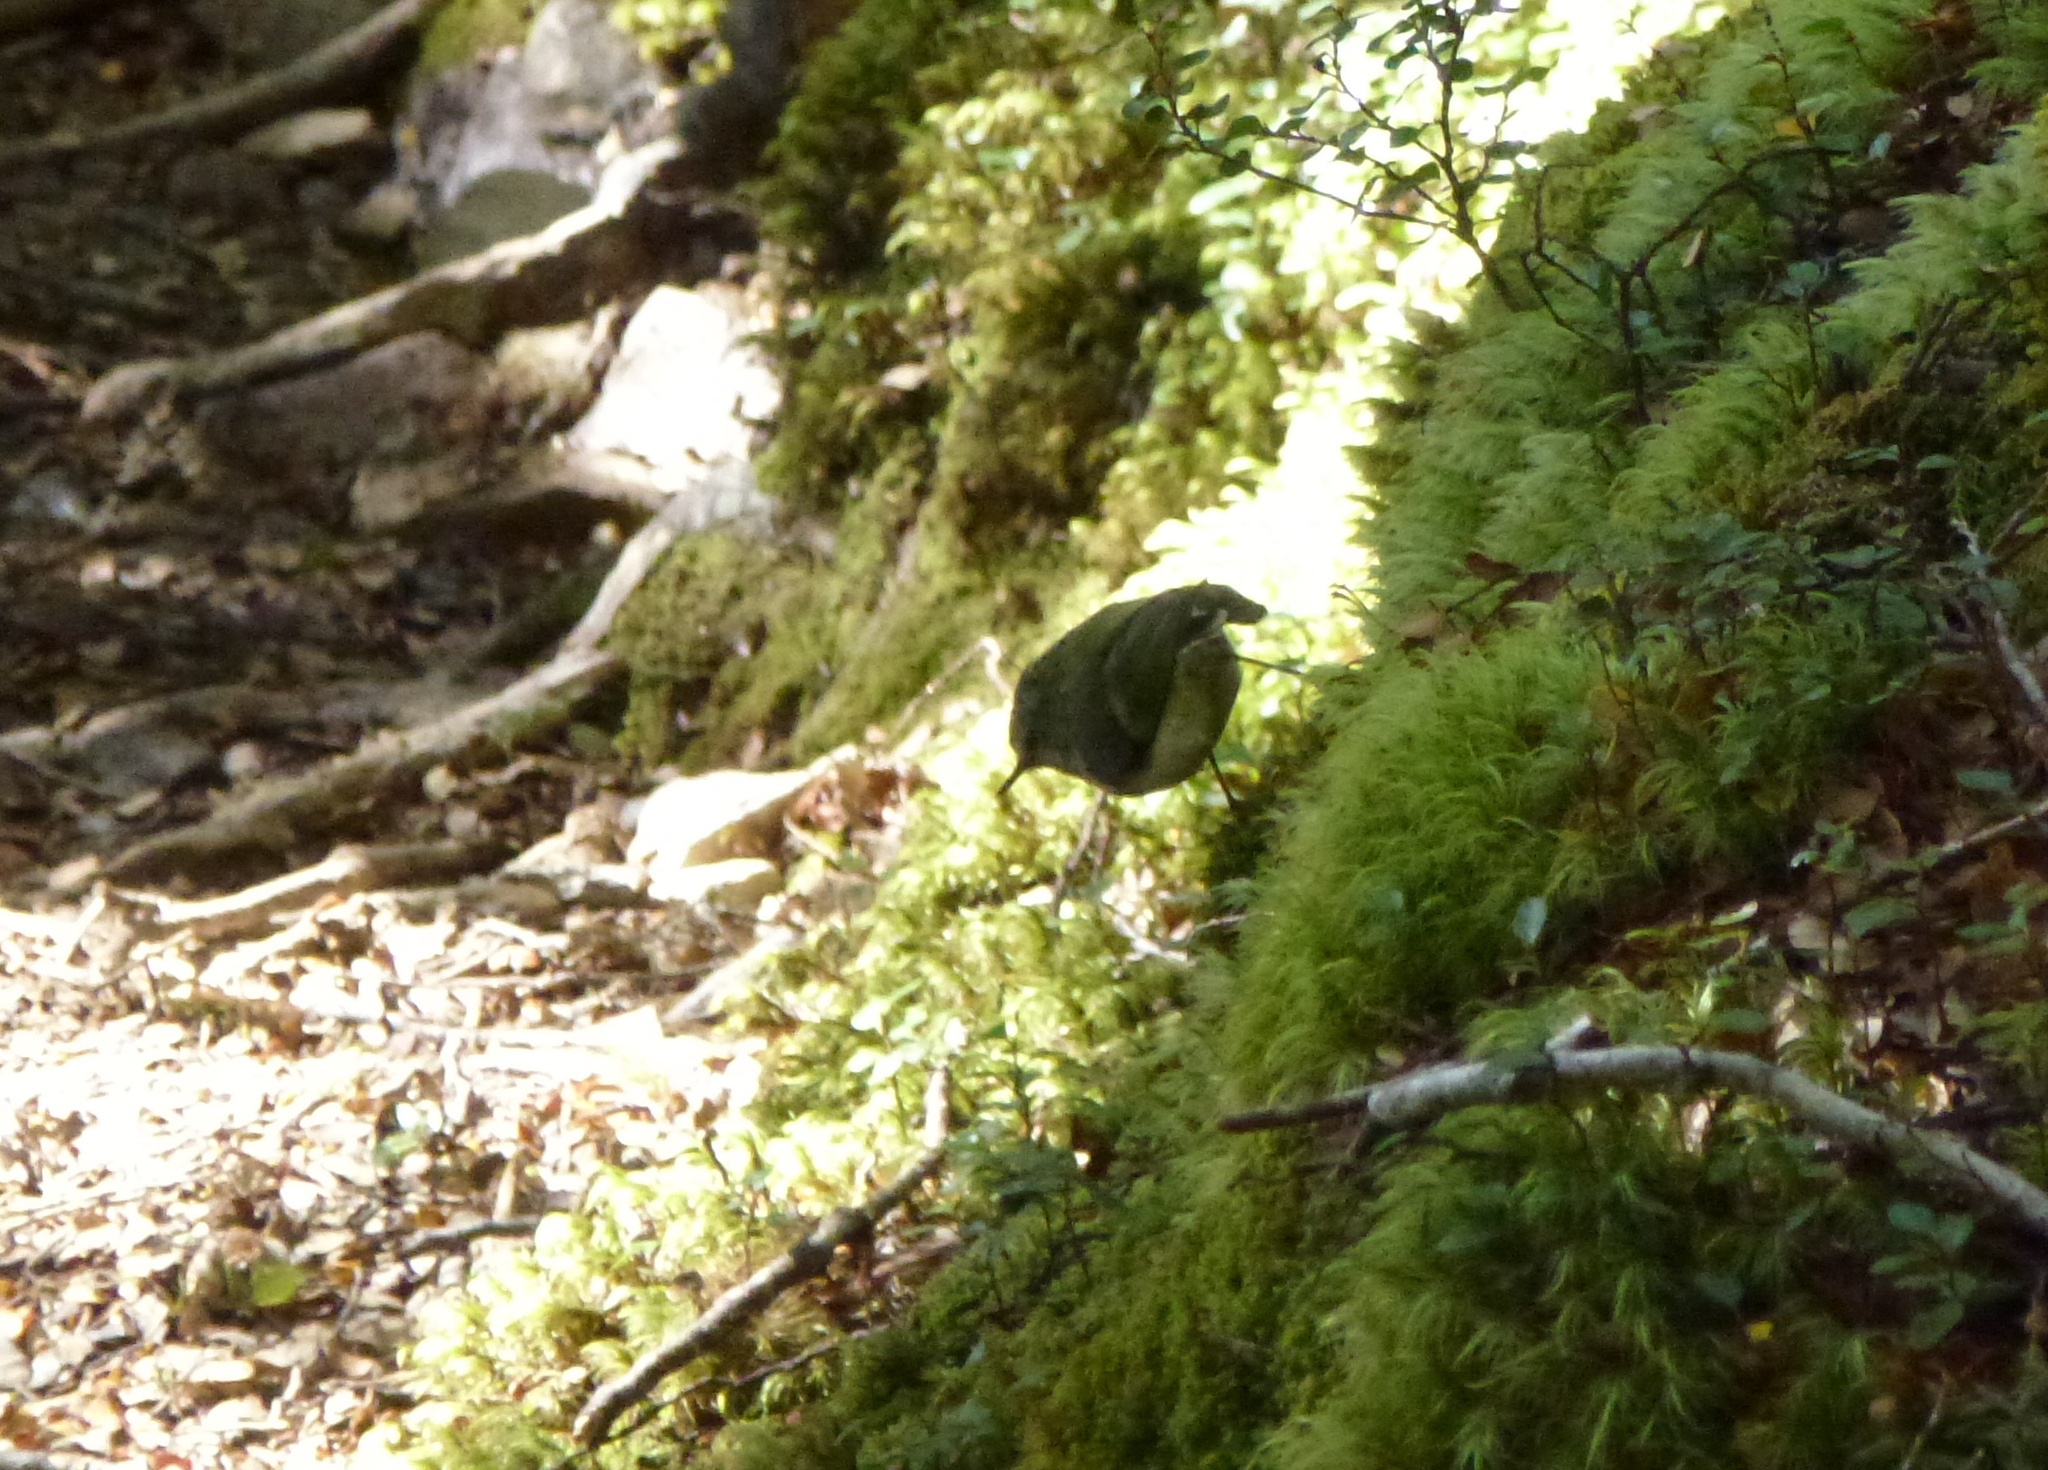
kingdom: Animalia
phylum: Chordata
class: Aves
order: Passeriformes
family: Acanthisittidae
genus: Acanthisitta
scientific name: Acanthisitta chloris
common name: Rifleman
